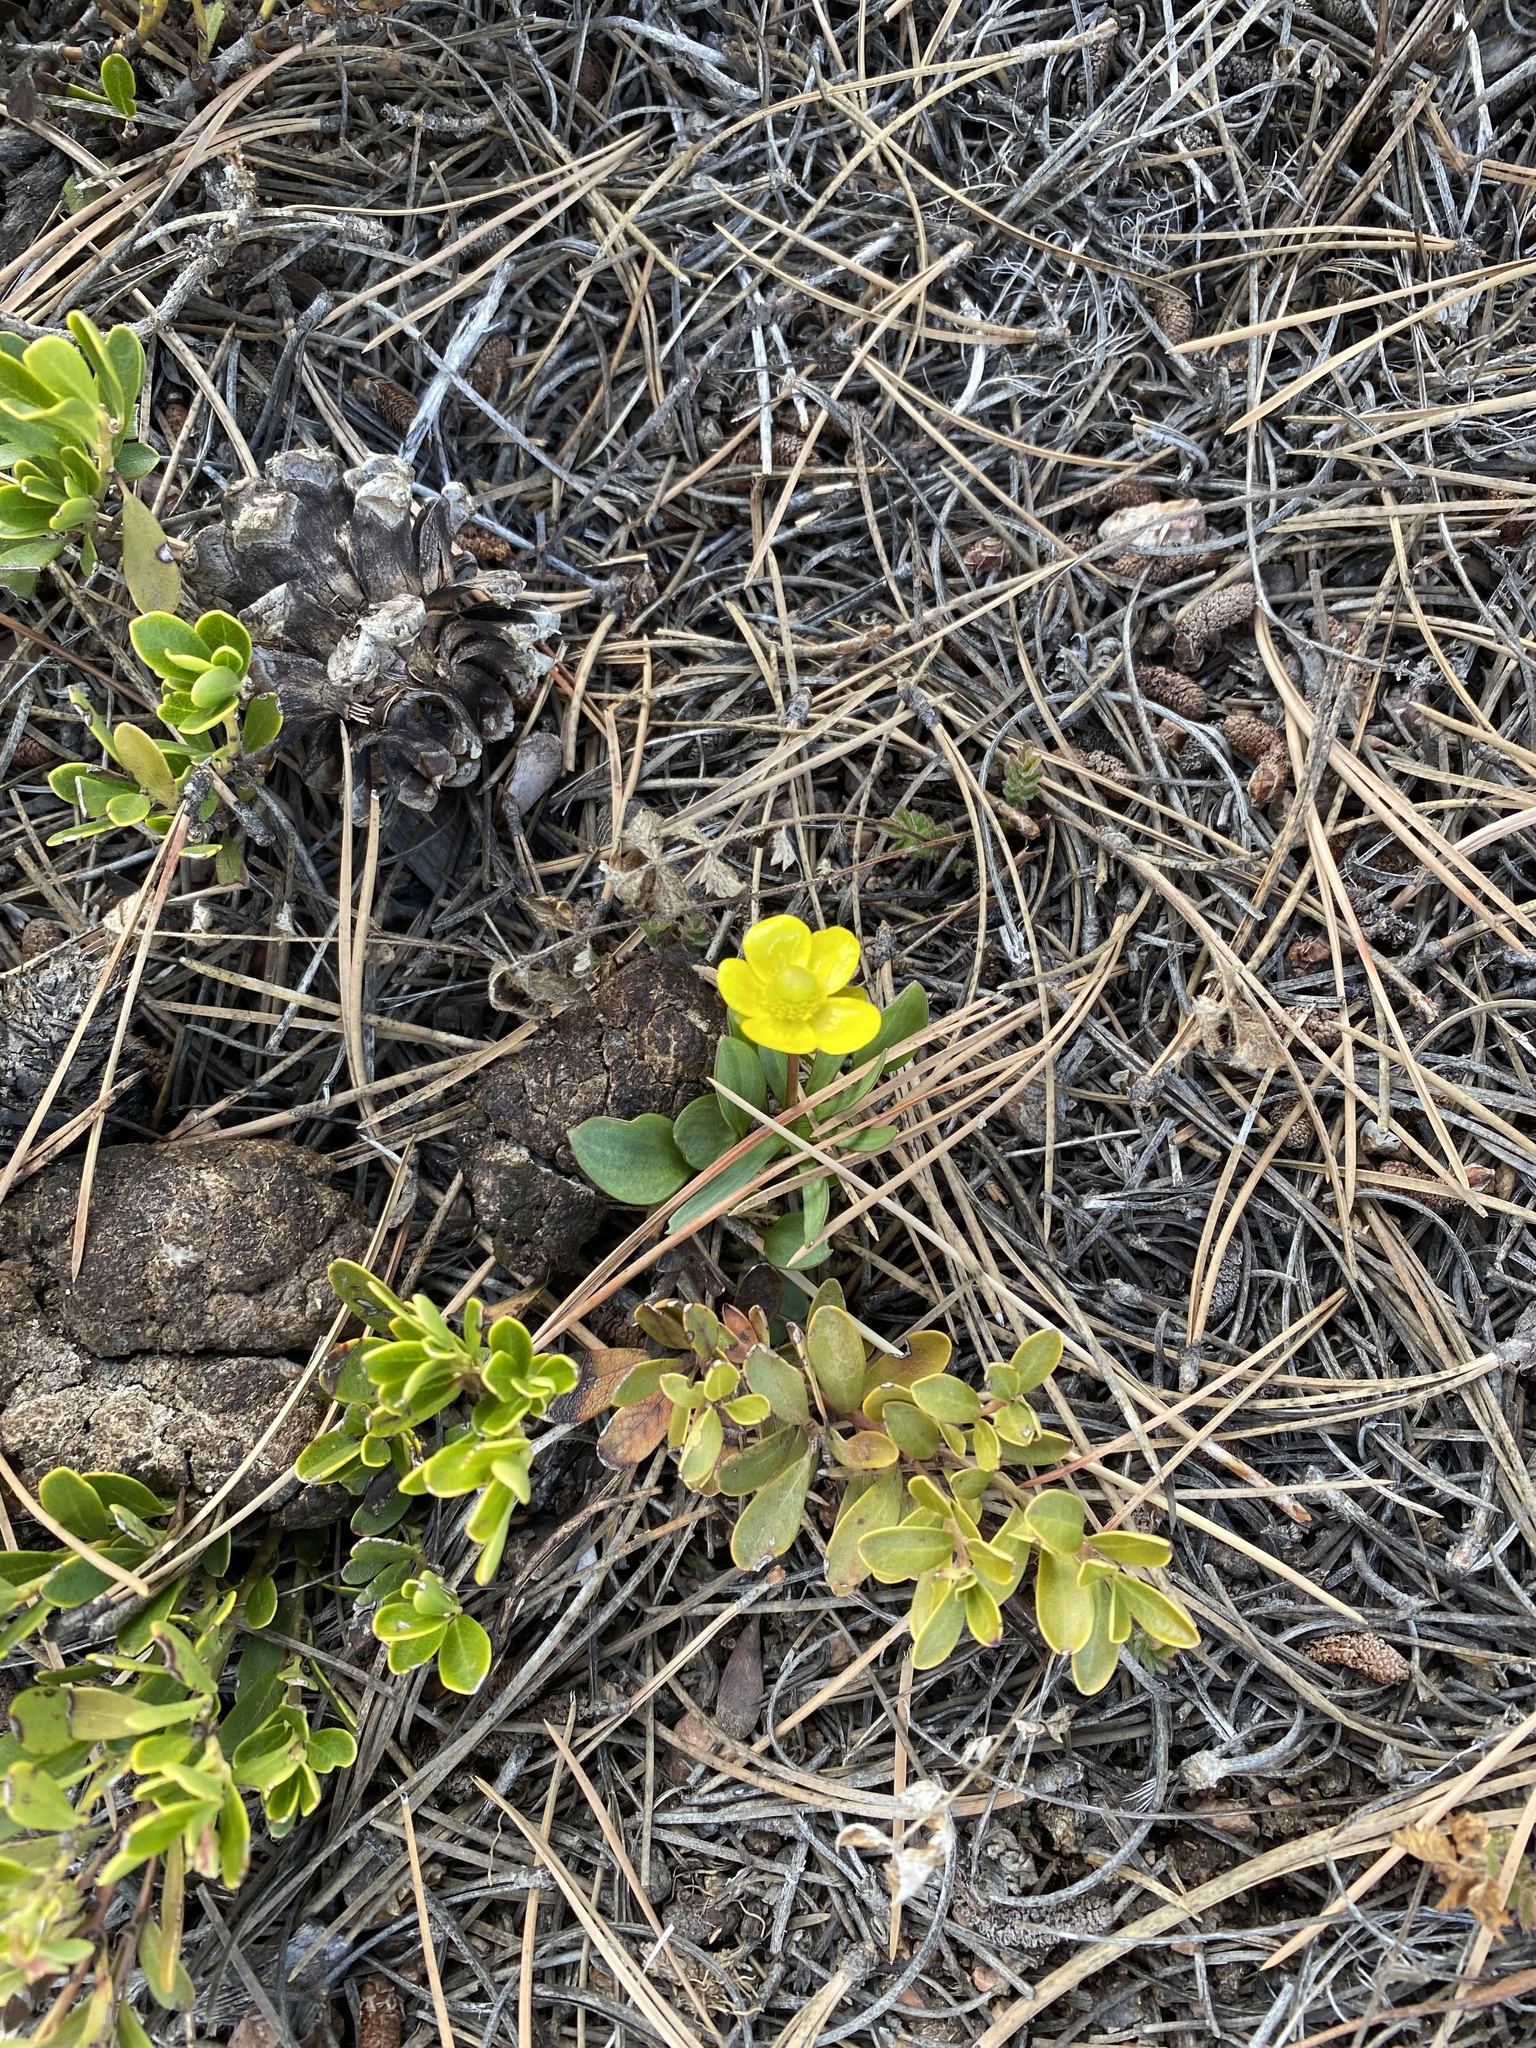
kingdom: Plantae
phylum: Tracheophyta
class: Magnoliopsida
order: Ranunculales
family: Ranunculaceae
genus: Ranunculus
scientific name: Ranunculus glaberrimus
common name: Sagebrush buttercup
